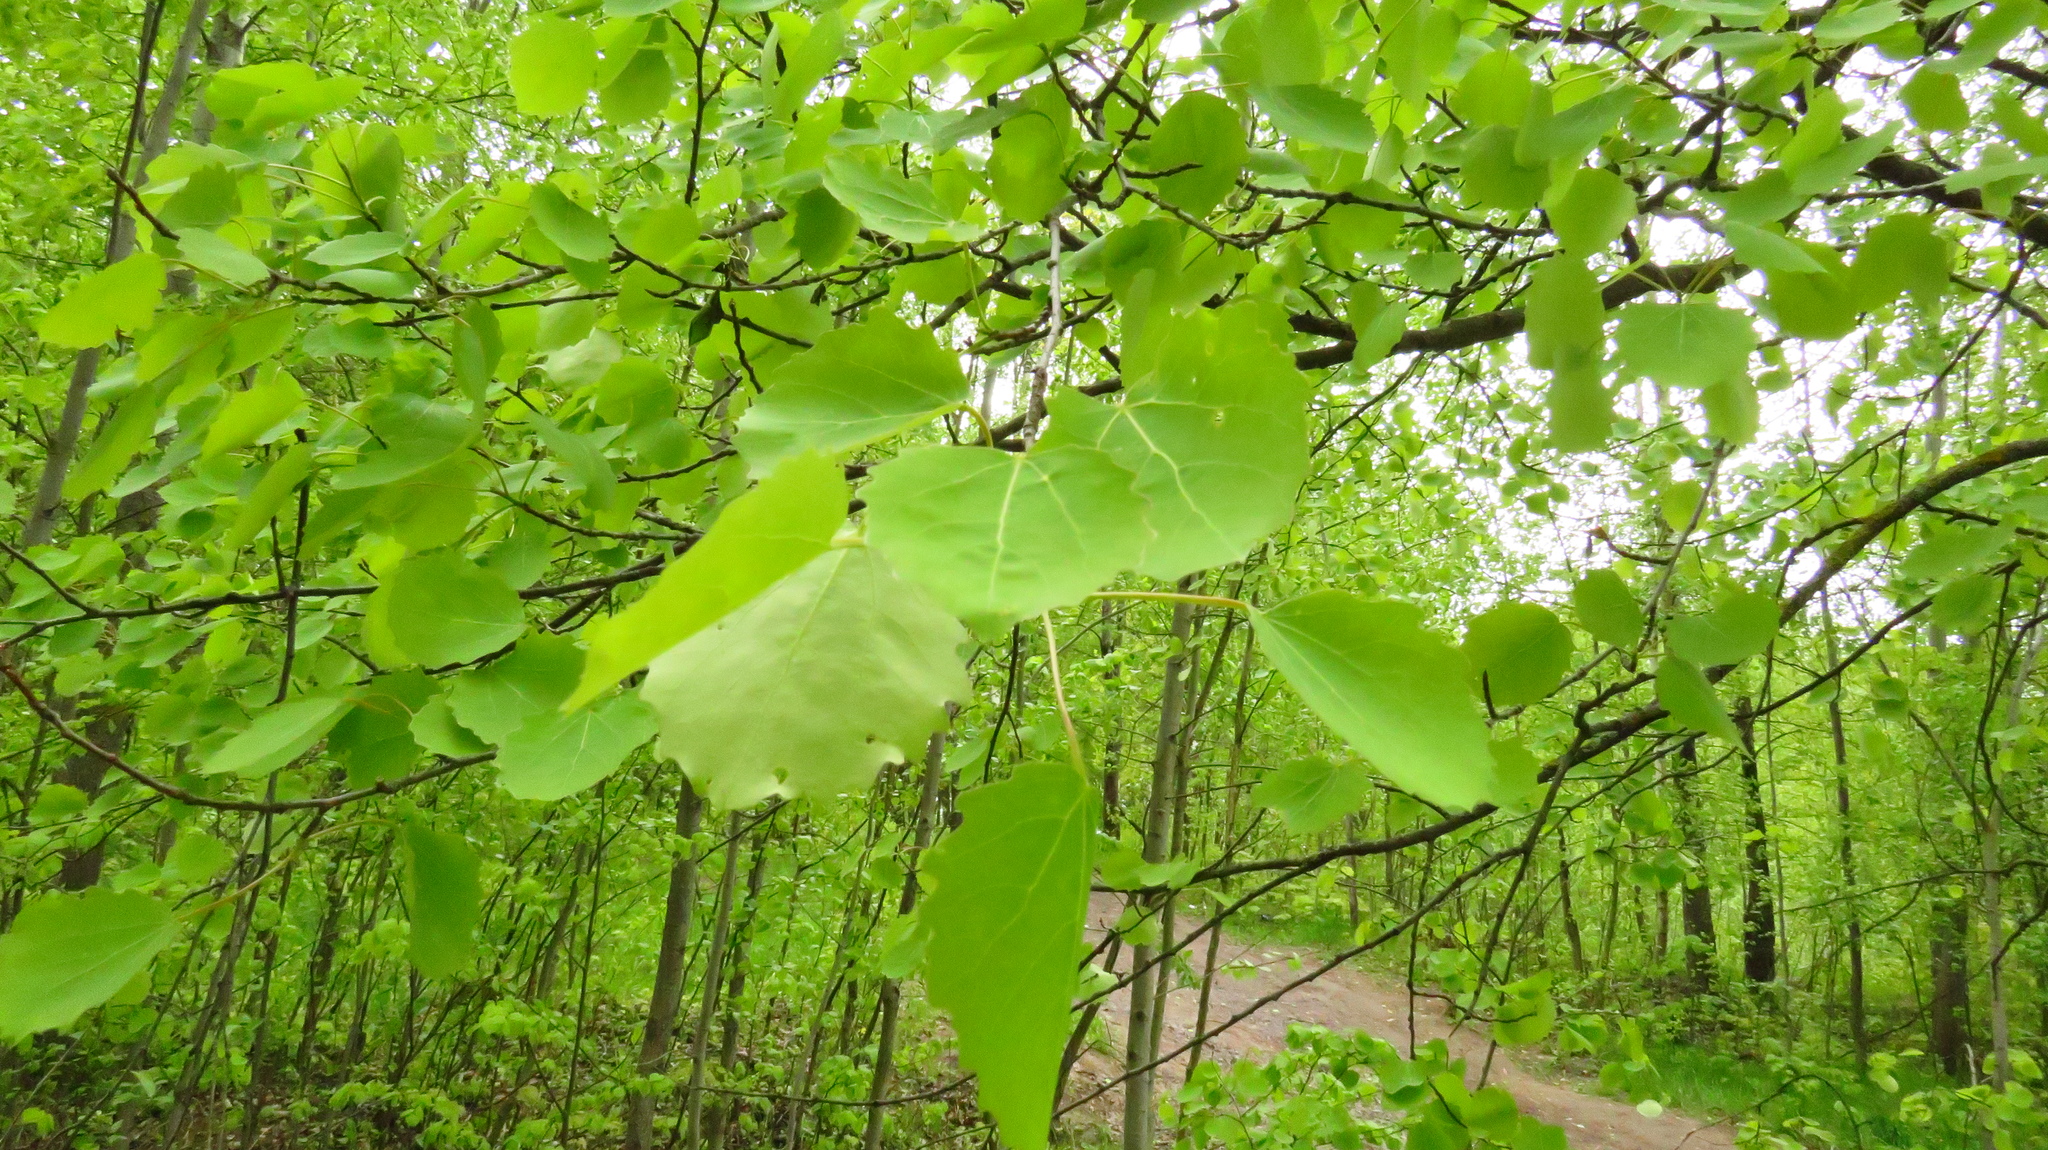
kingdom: Plantae
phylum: Tracheophyta
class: Magnoliopsida
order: Malpighiales
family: Salicaceae
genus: Populus
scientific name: Populus tremula
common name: European aspen
